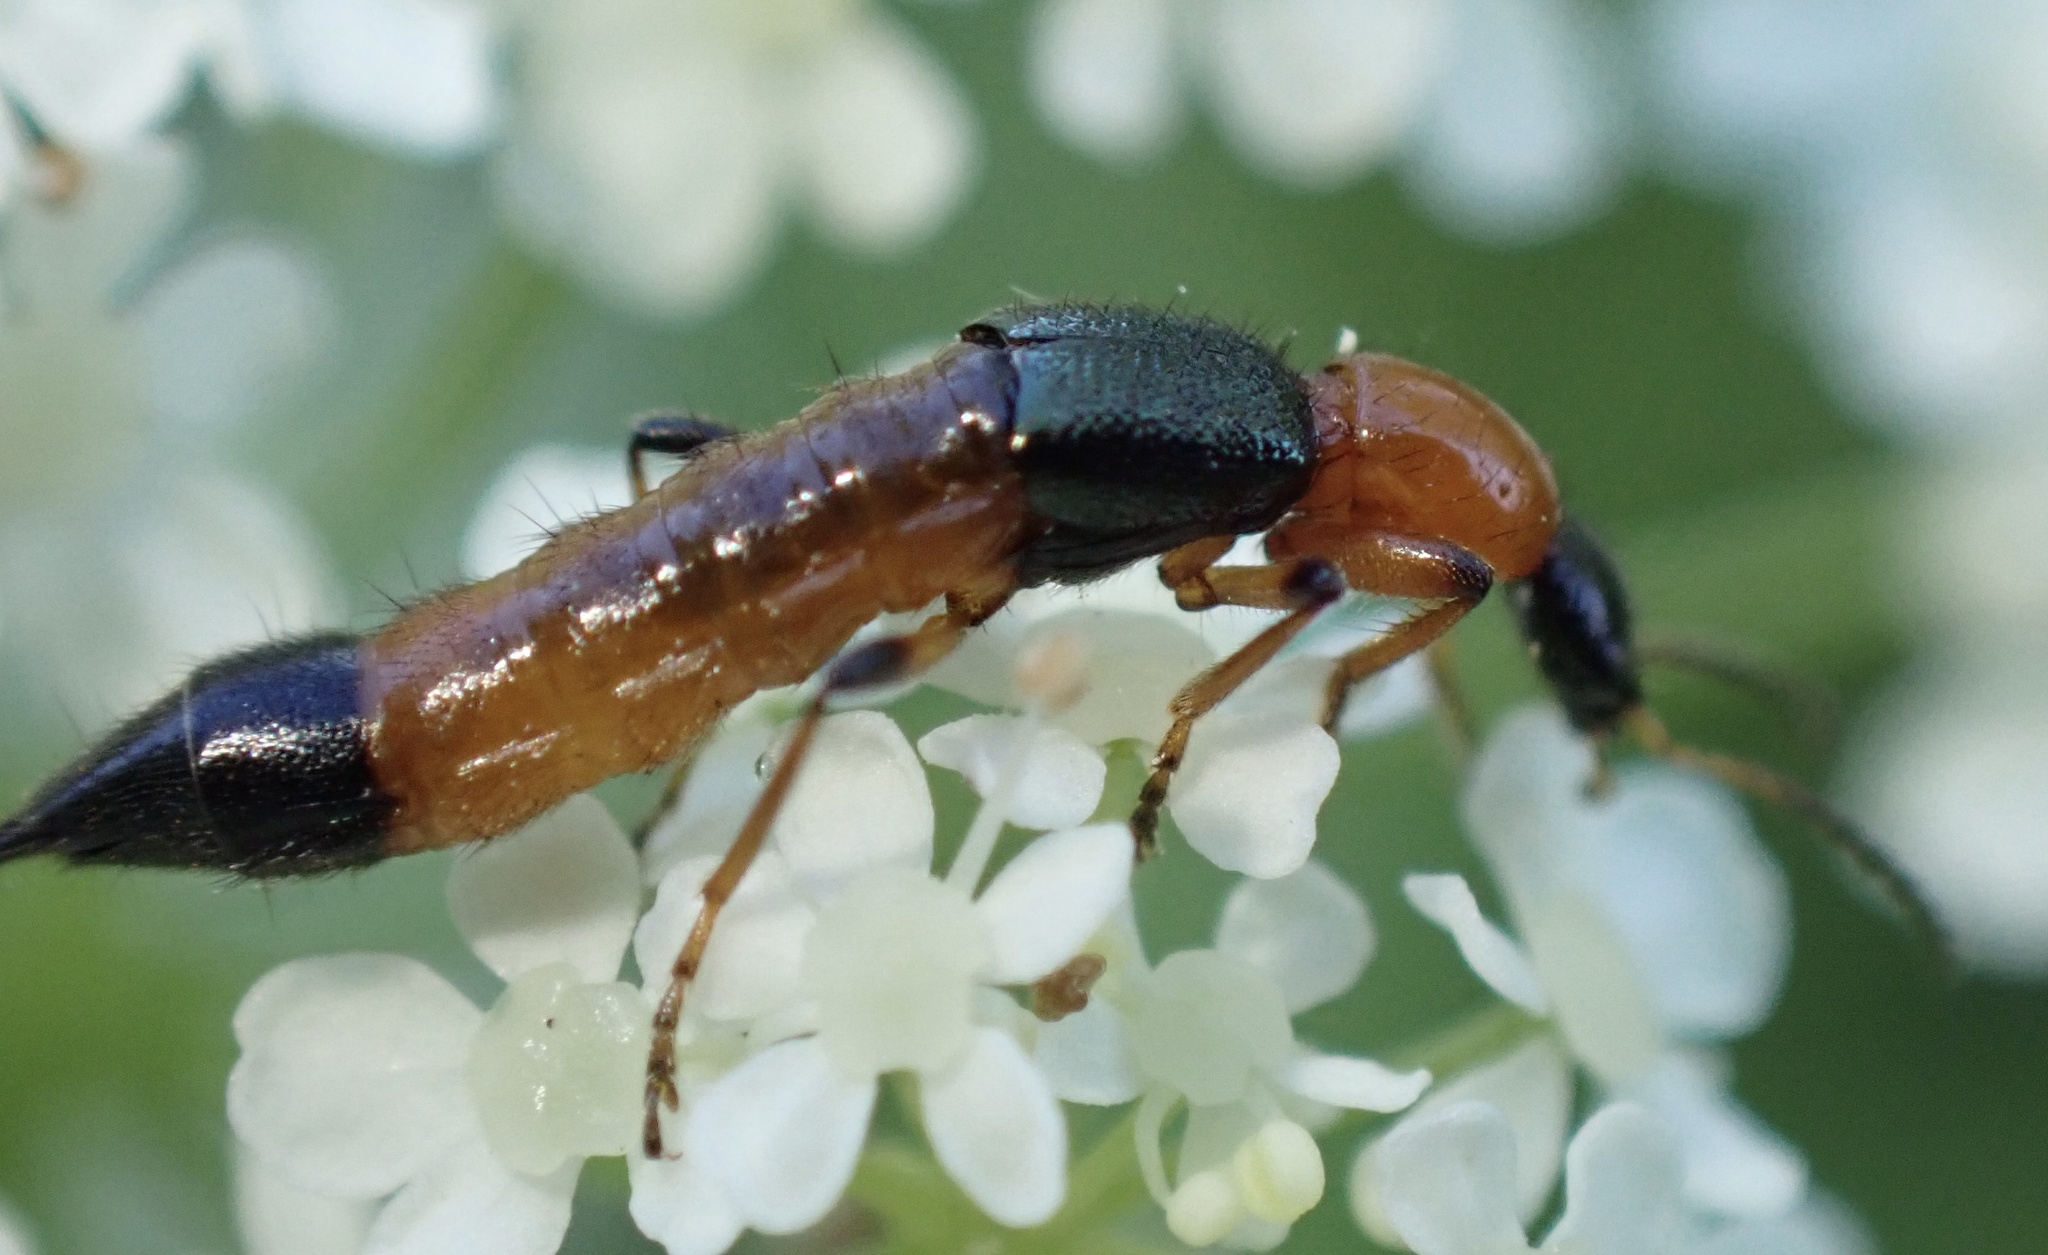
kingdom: Animalia
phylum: Arthropoda
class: Insecta
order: Coleoptera
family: Staphylinidae
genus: Paederus
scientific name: Paederus riparius
